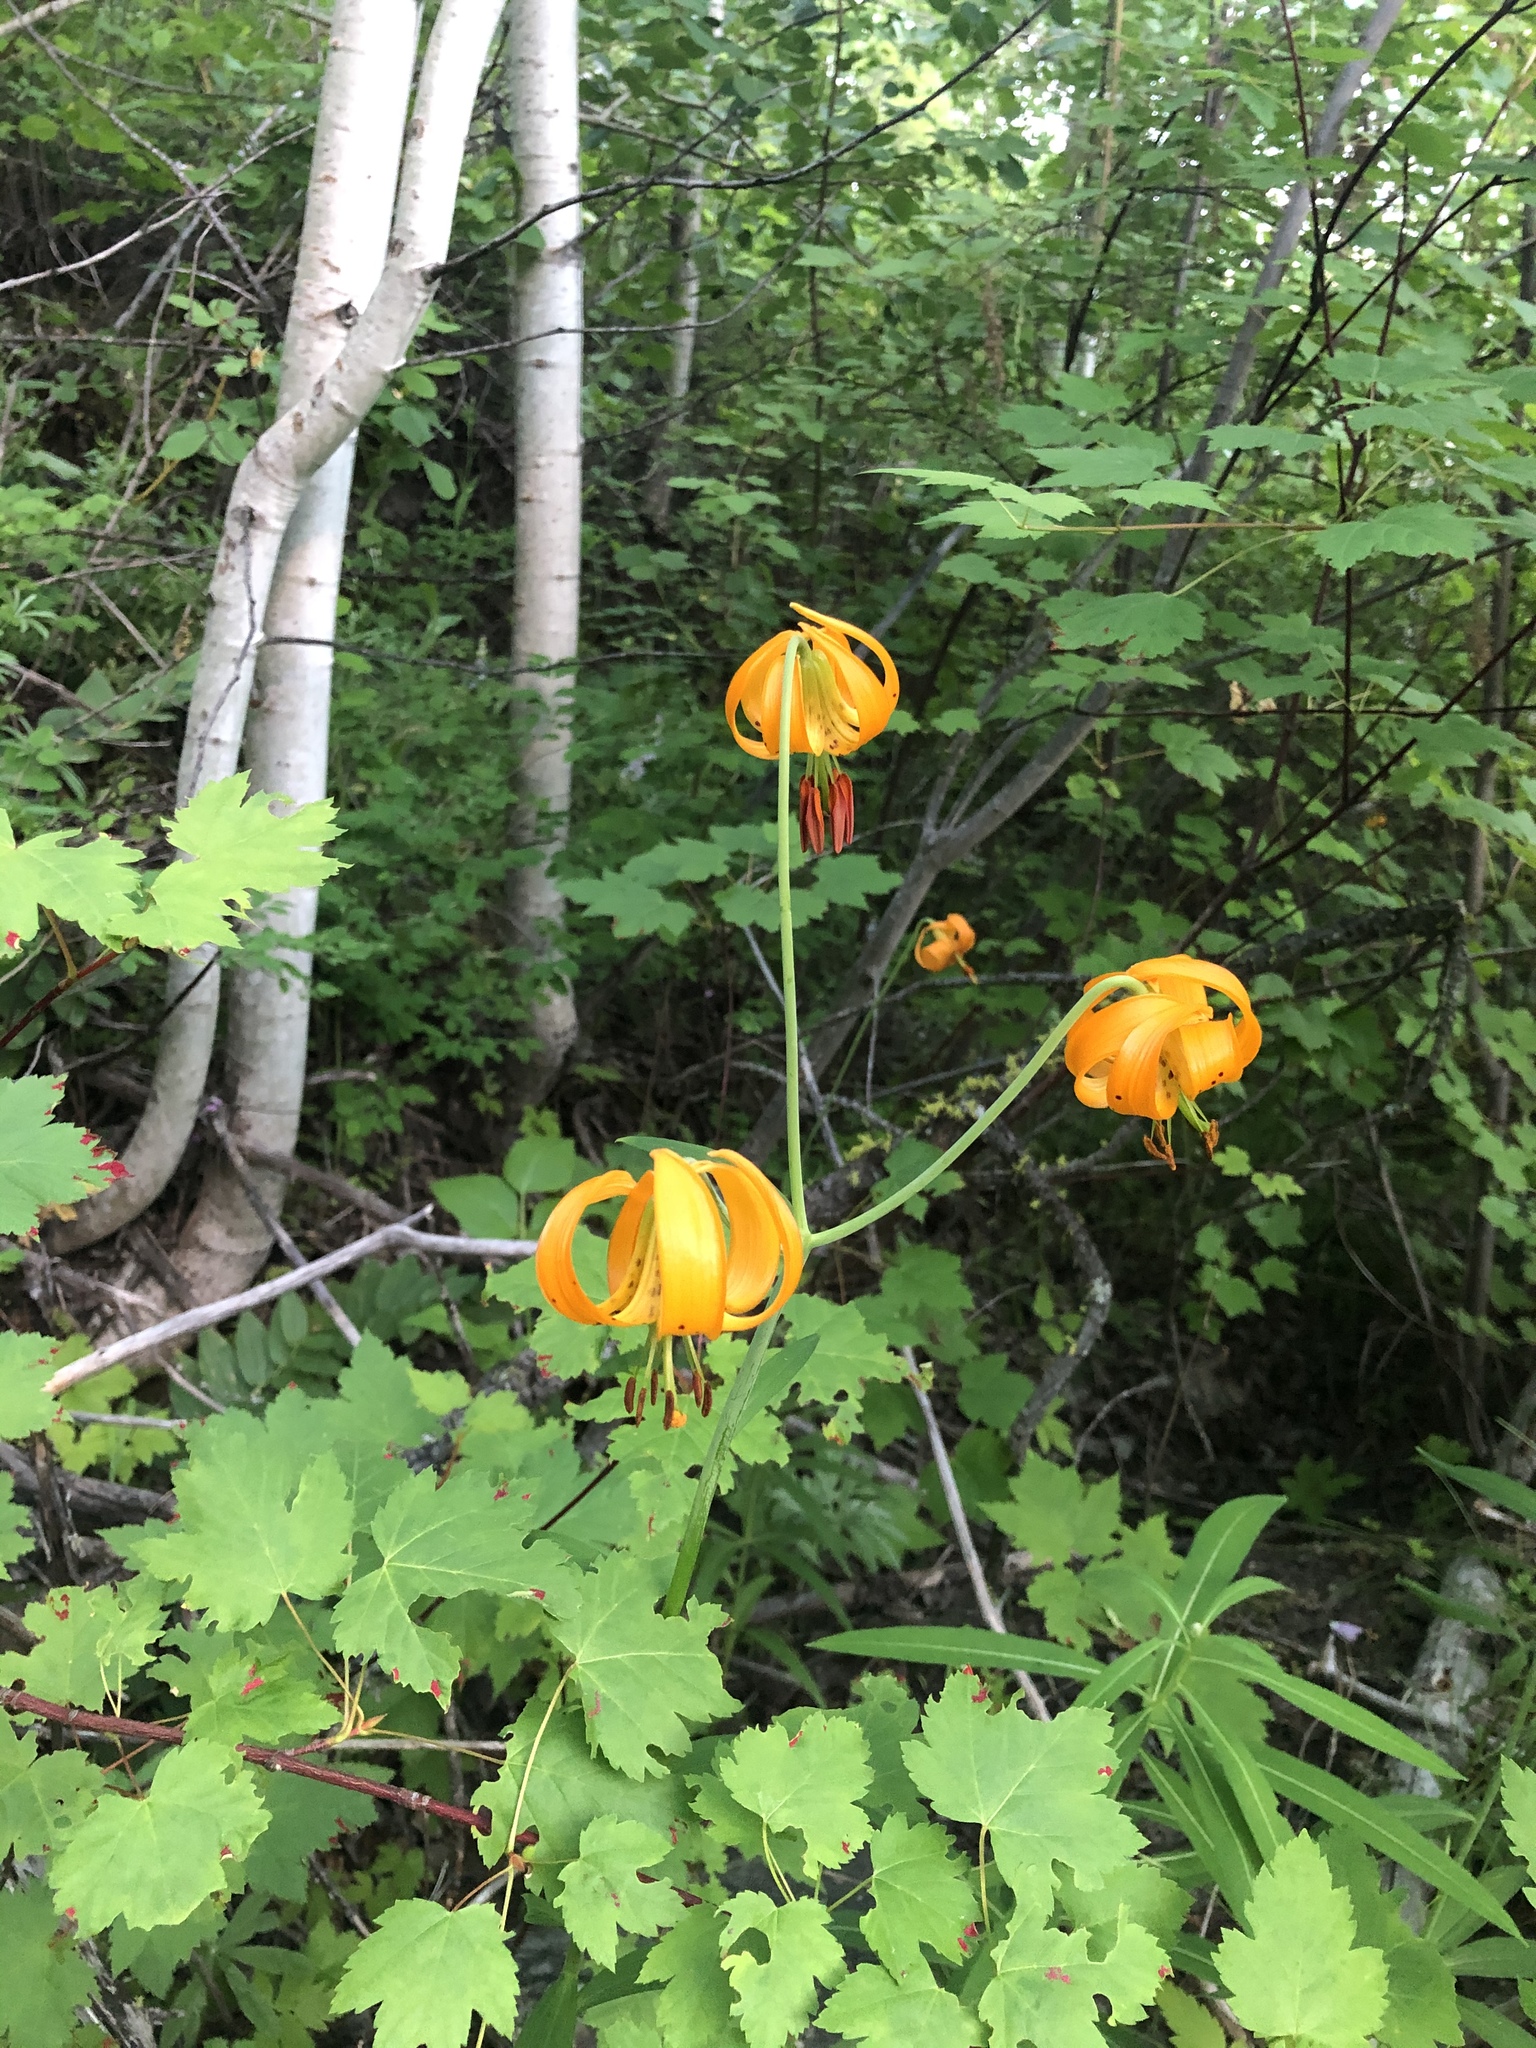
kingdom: Plantae
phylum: Tracheophyta
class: Liliopsida
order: Liliales
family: Liliaceae
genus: Lilium
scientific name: Lilium columbianum
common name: Columbia lily
